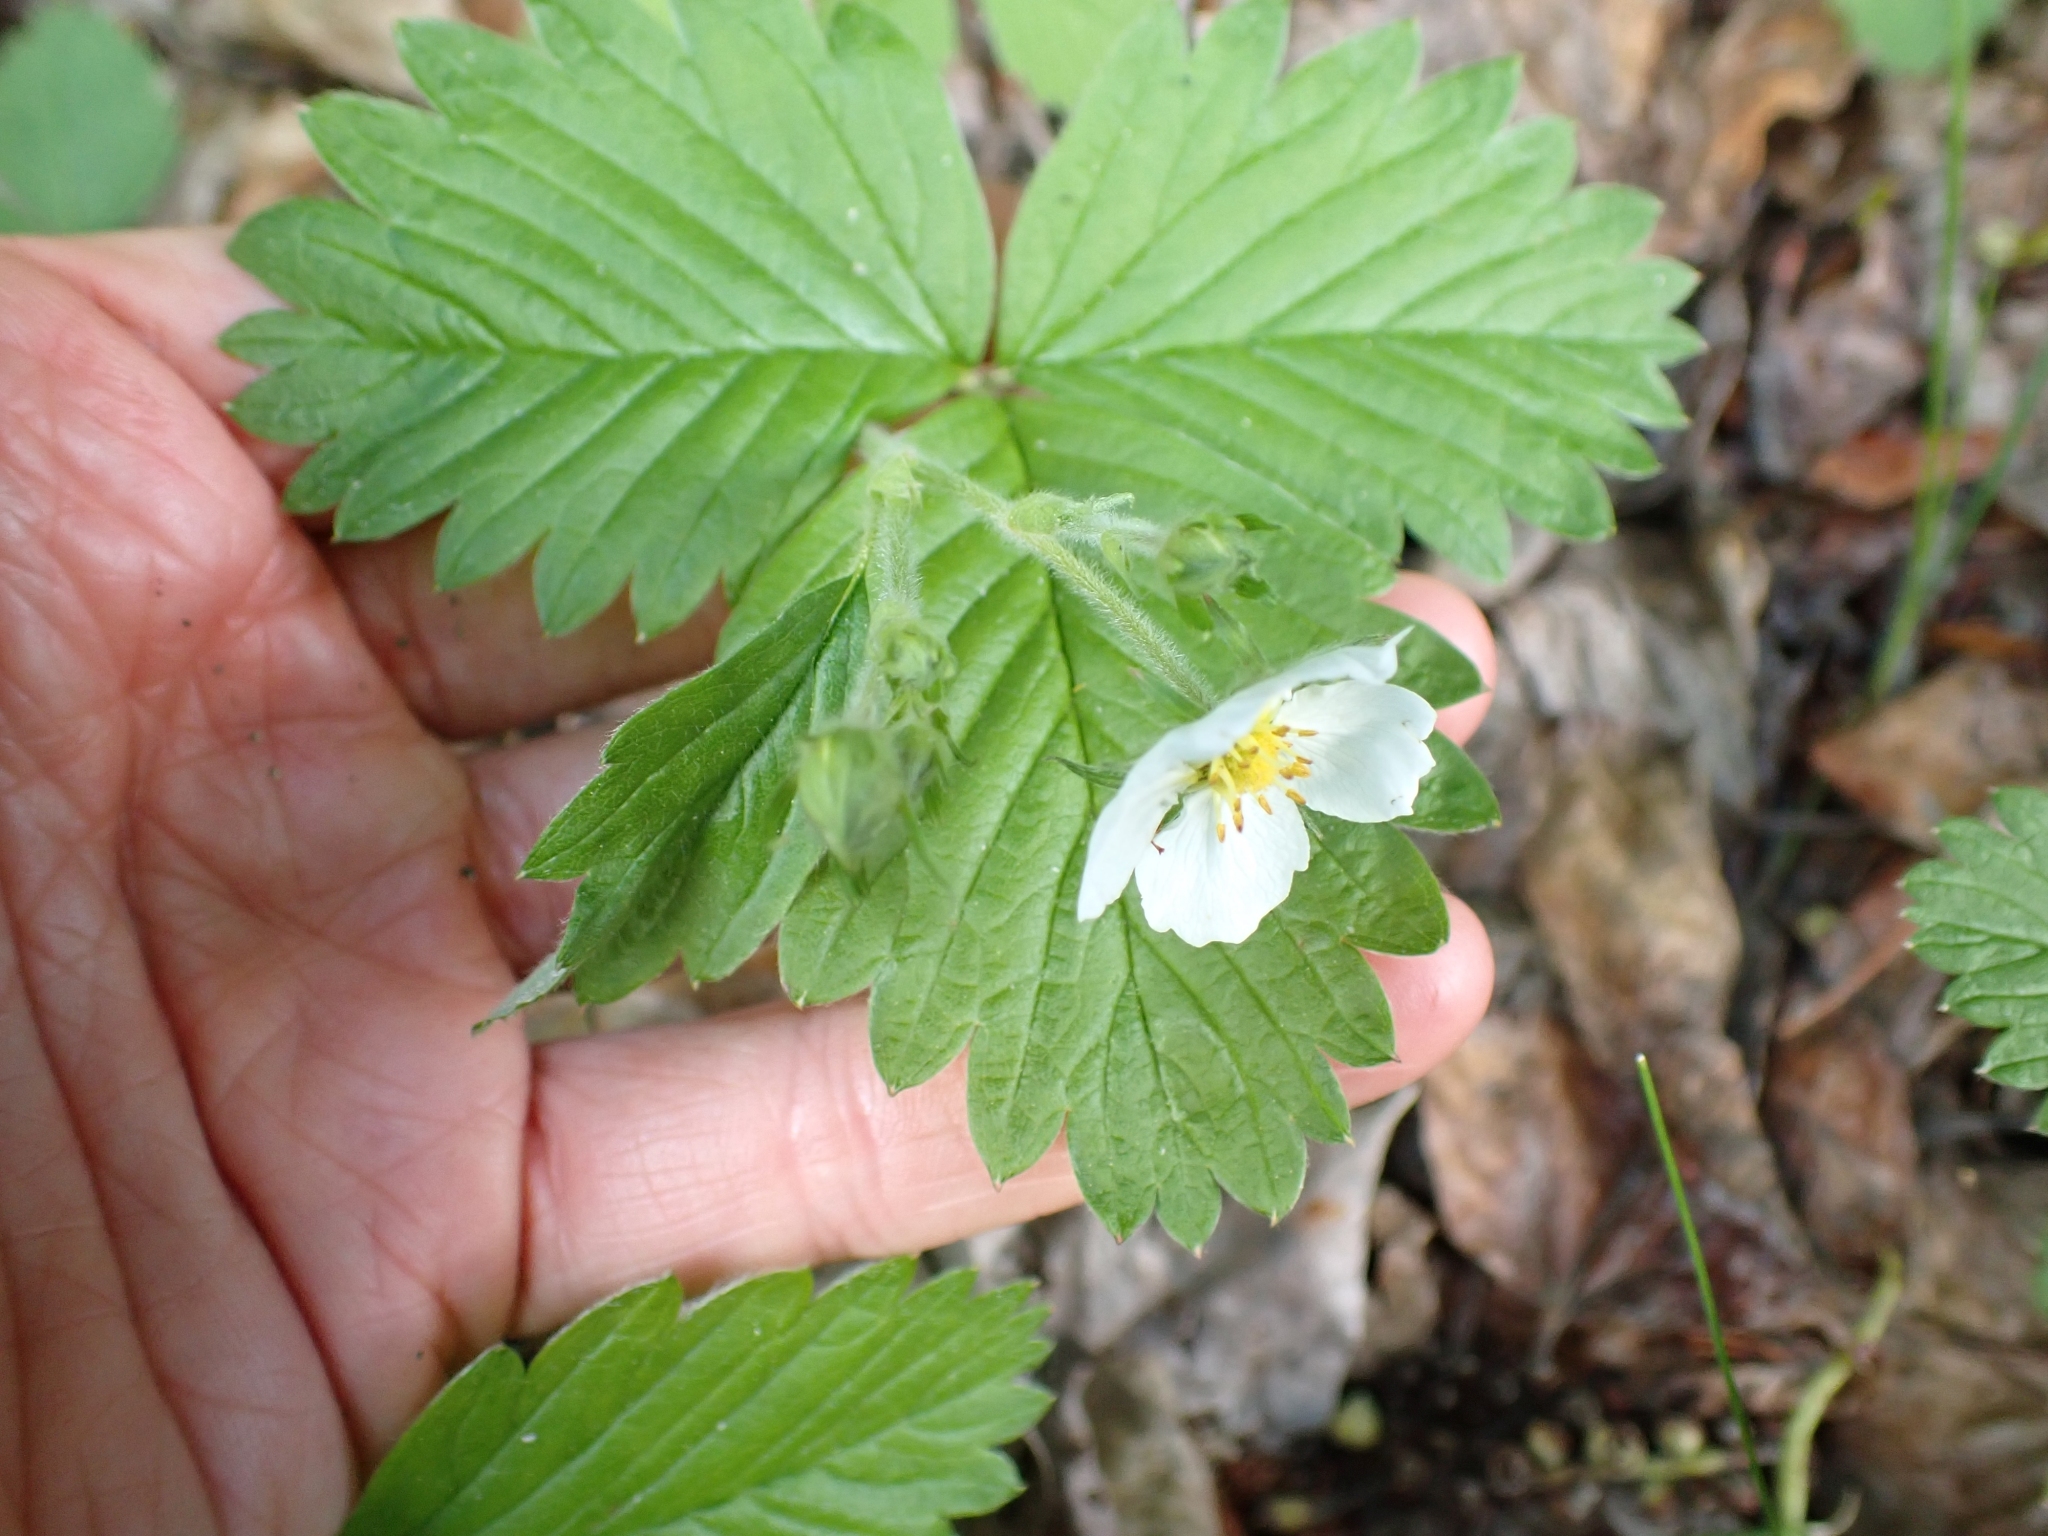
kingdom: Plantae
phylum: Tracheophyta
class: Magnoliopsida
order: Rosales
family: Rosaceae
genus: Fragaria
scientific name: Fragaria vesca
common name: Wild strawberry
